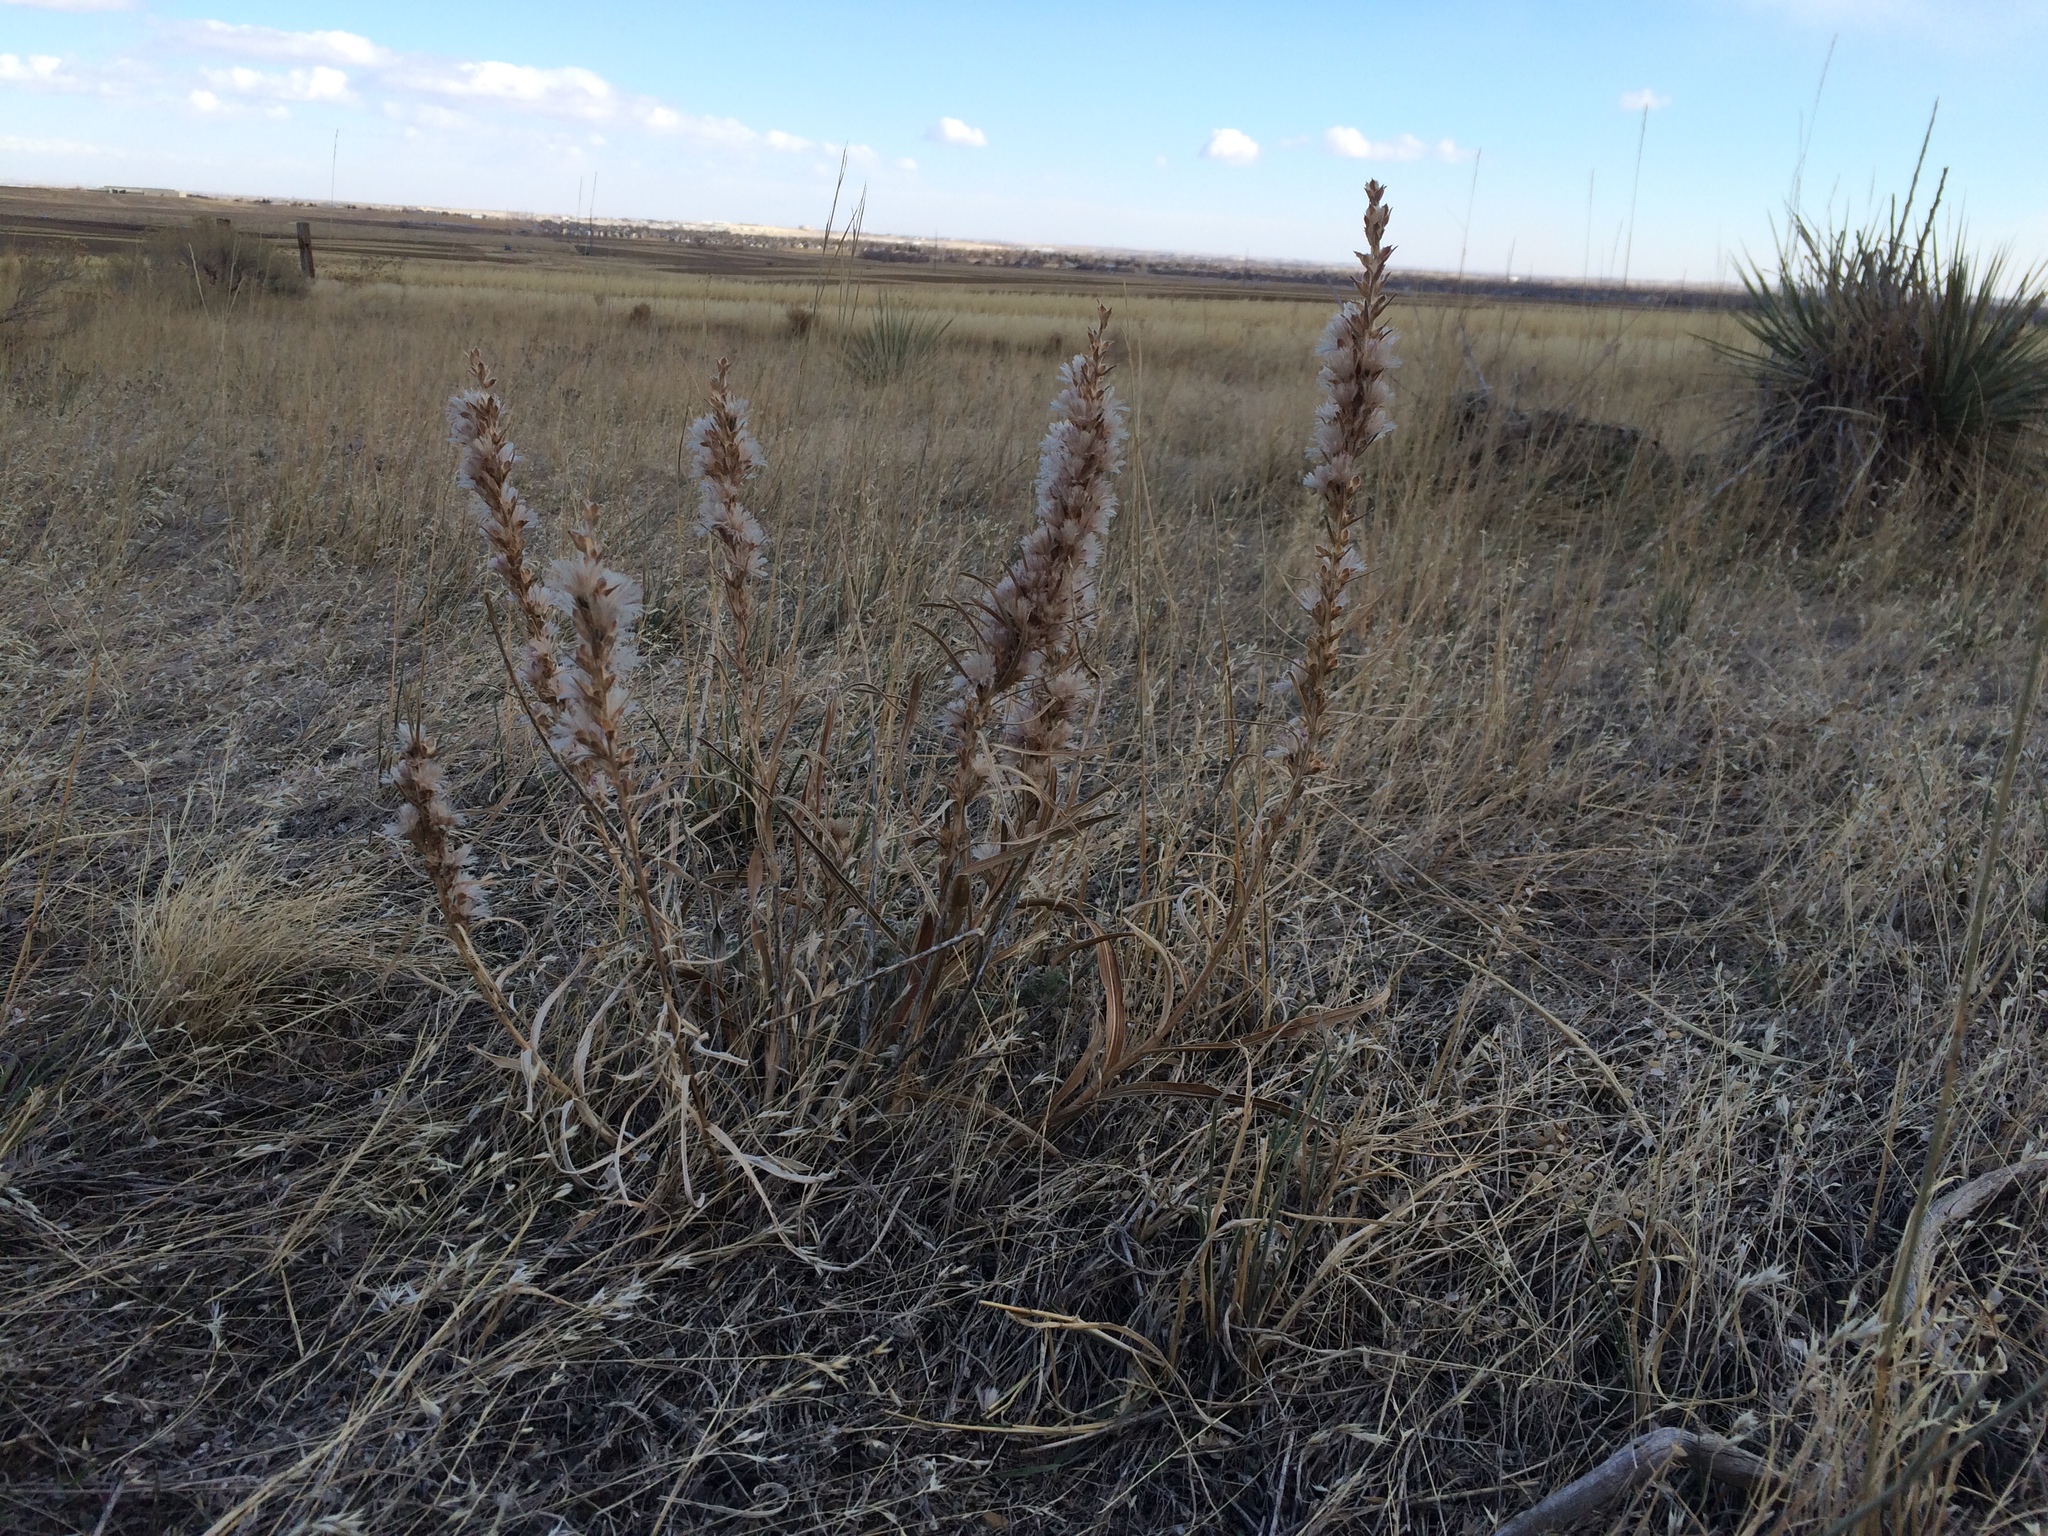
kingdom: Plantae
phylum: Tracheophyta
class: Magnoliopsida
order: Asterales
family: Asteraceae
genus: Liatris
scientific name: Liatris punctata
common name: Dotted gayfeather
